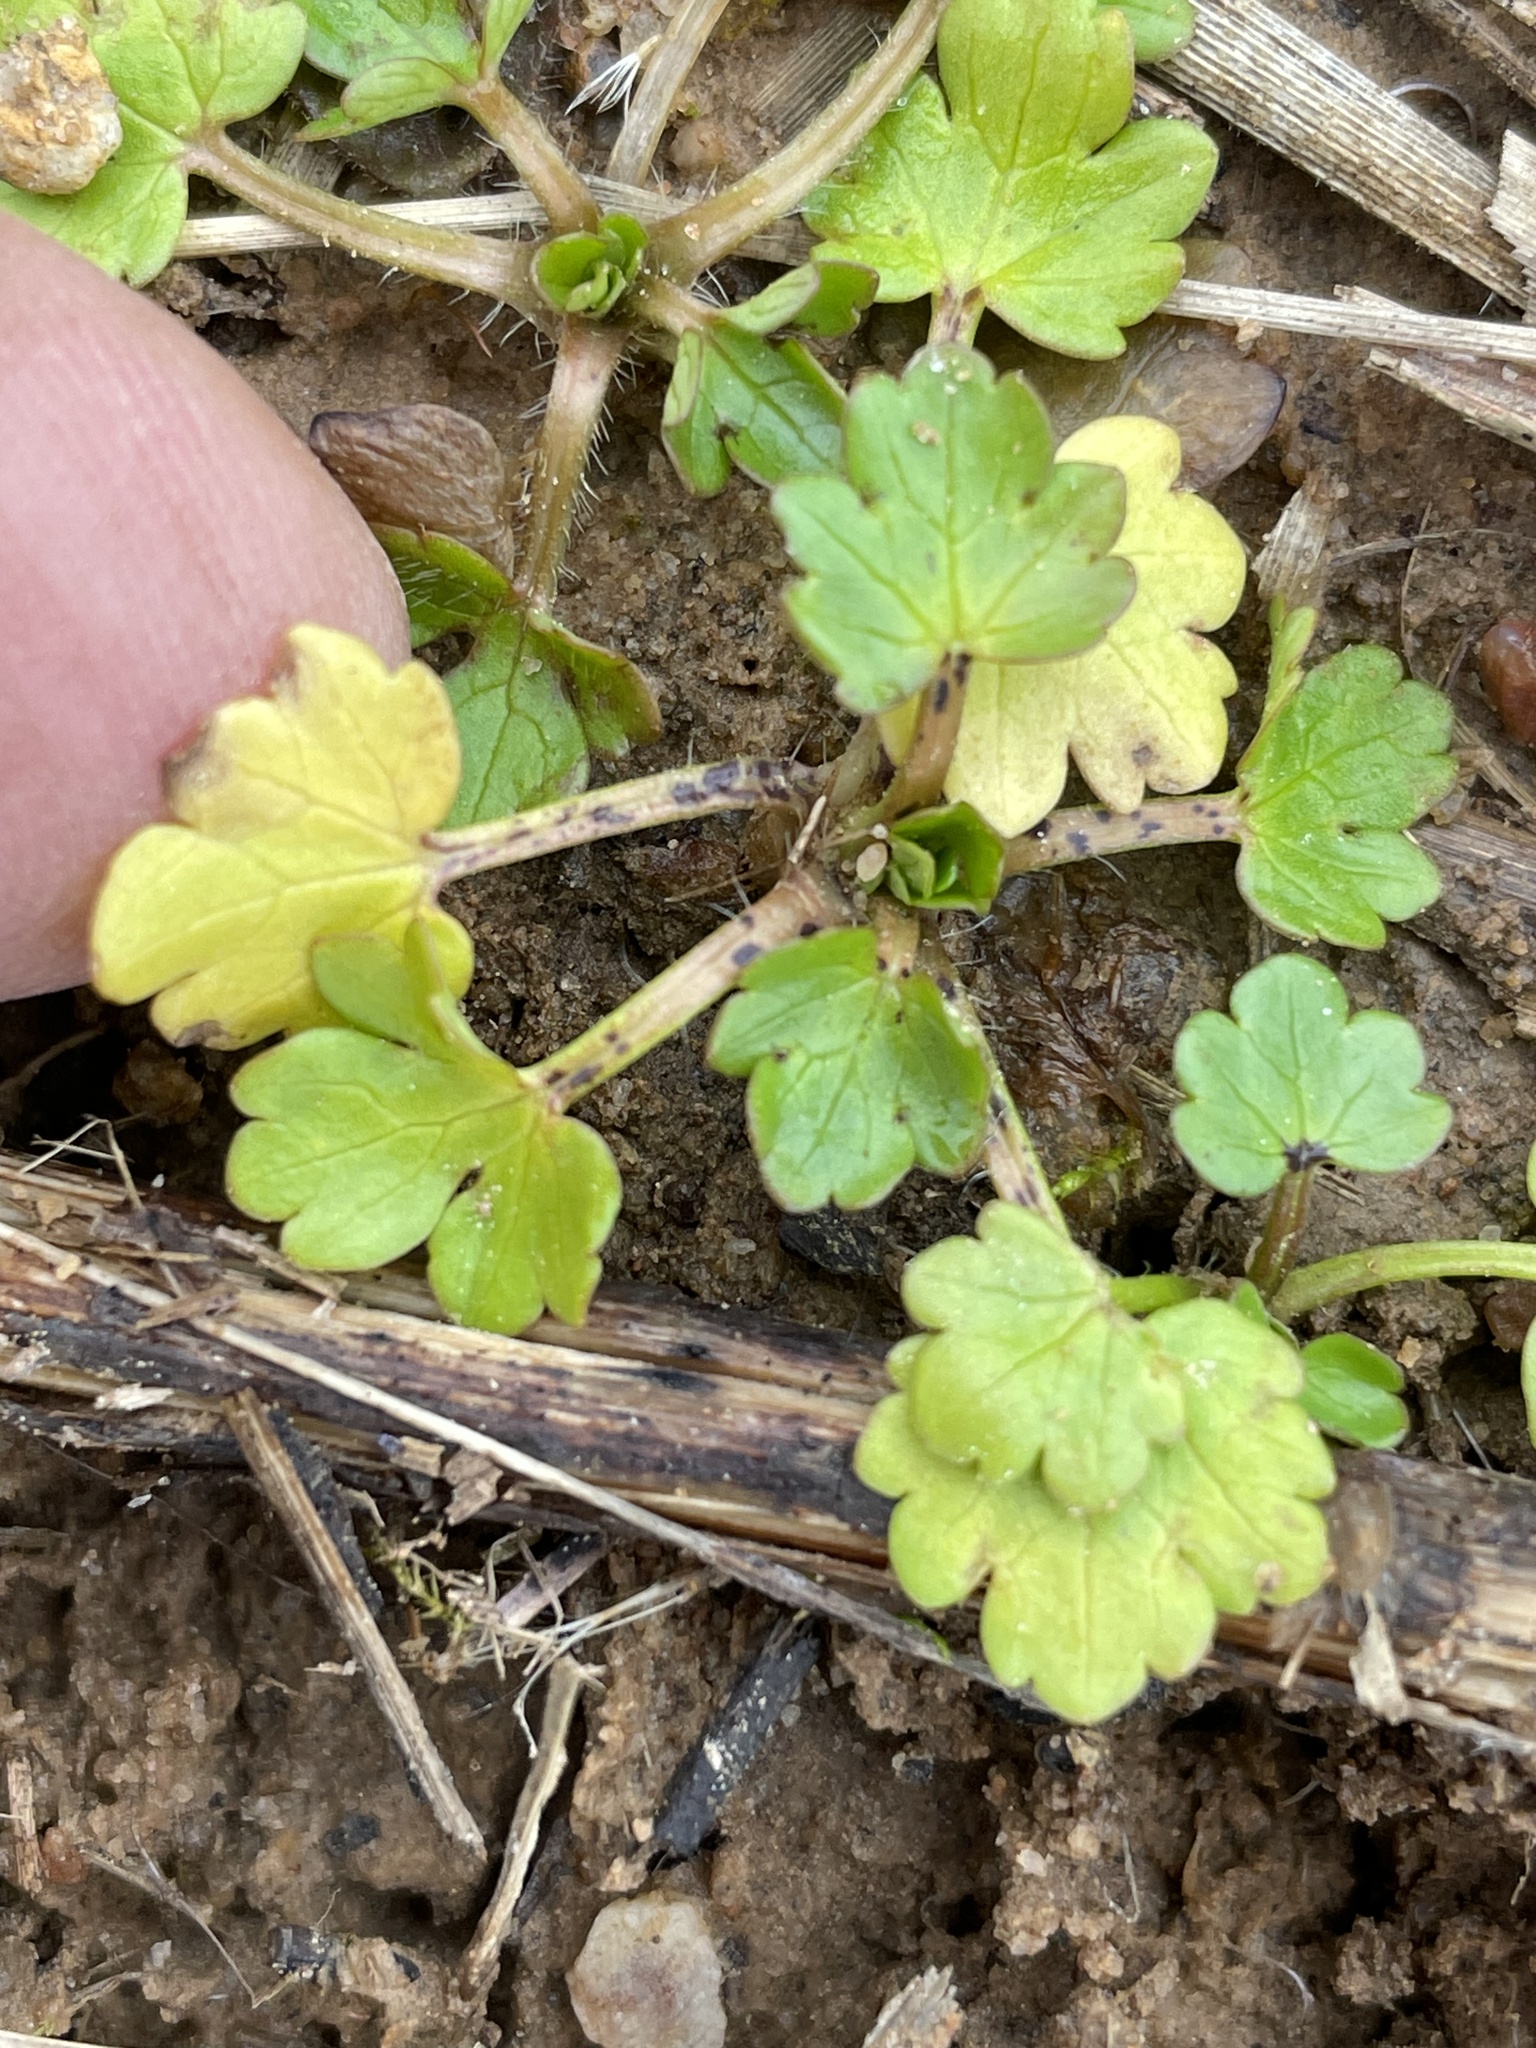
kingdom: Plantae
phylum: Tracheophyta
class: Magnoliopsida
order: Ranunculales
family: Ranunculaceae
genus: Ranunculus
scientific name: Ranunculus parviflorus
